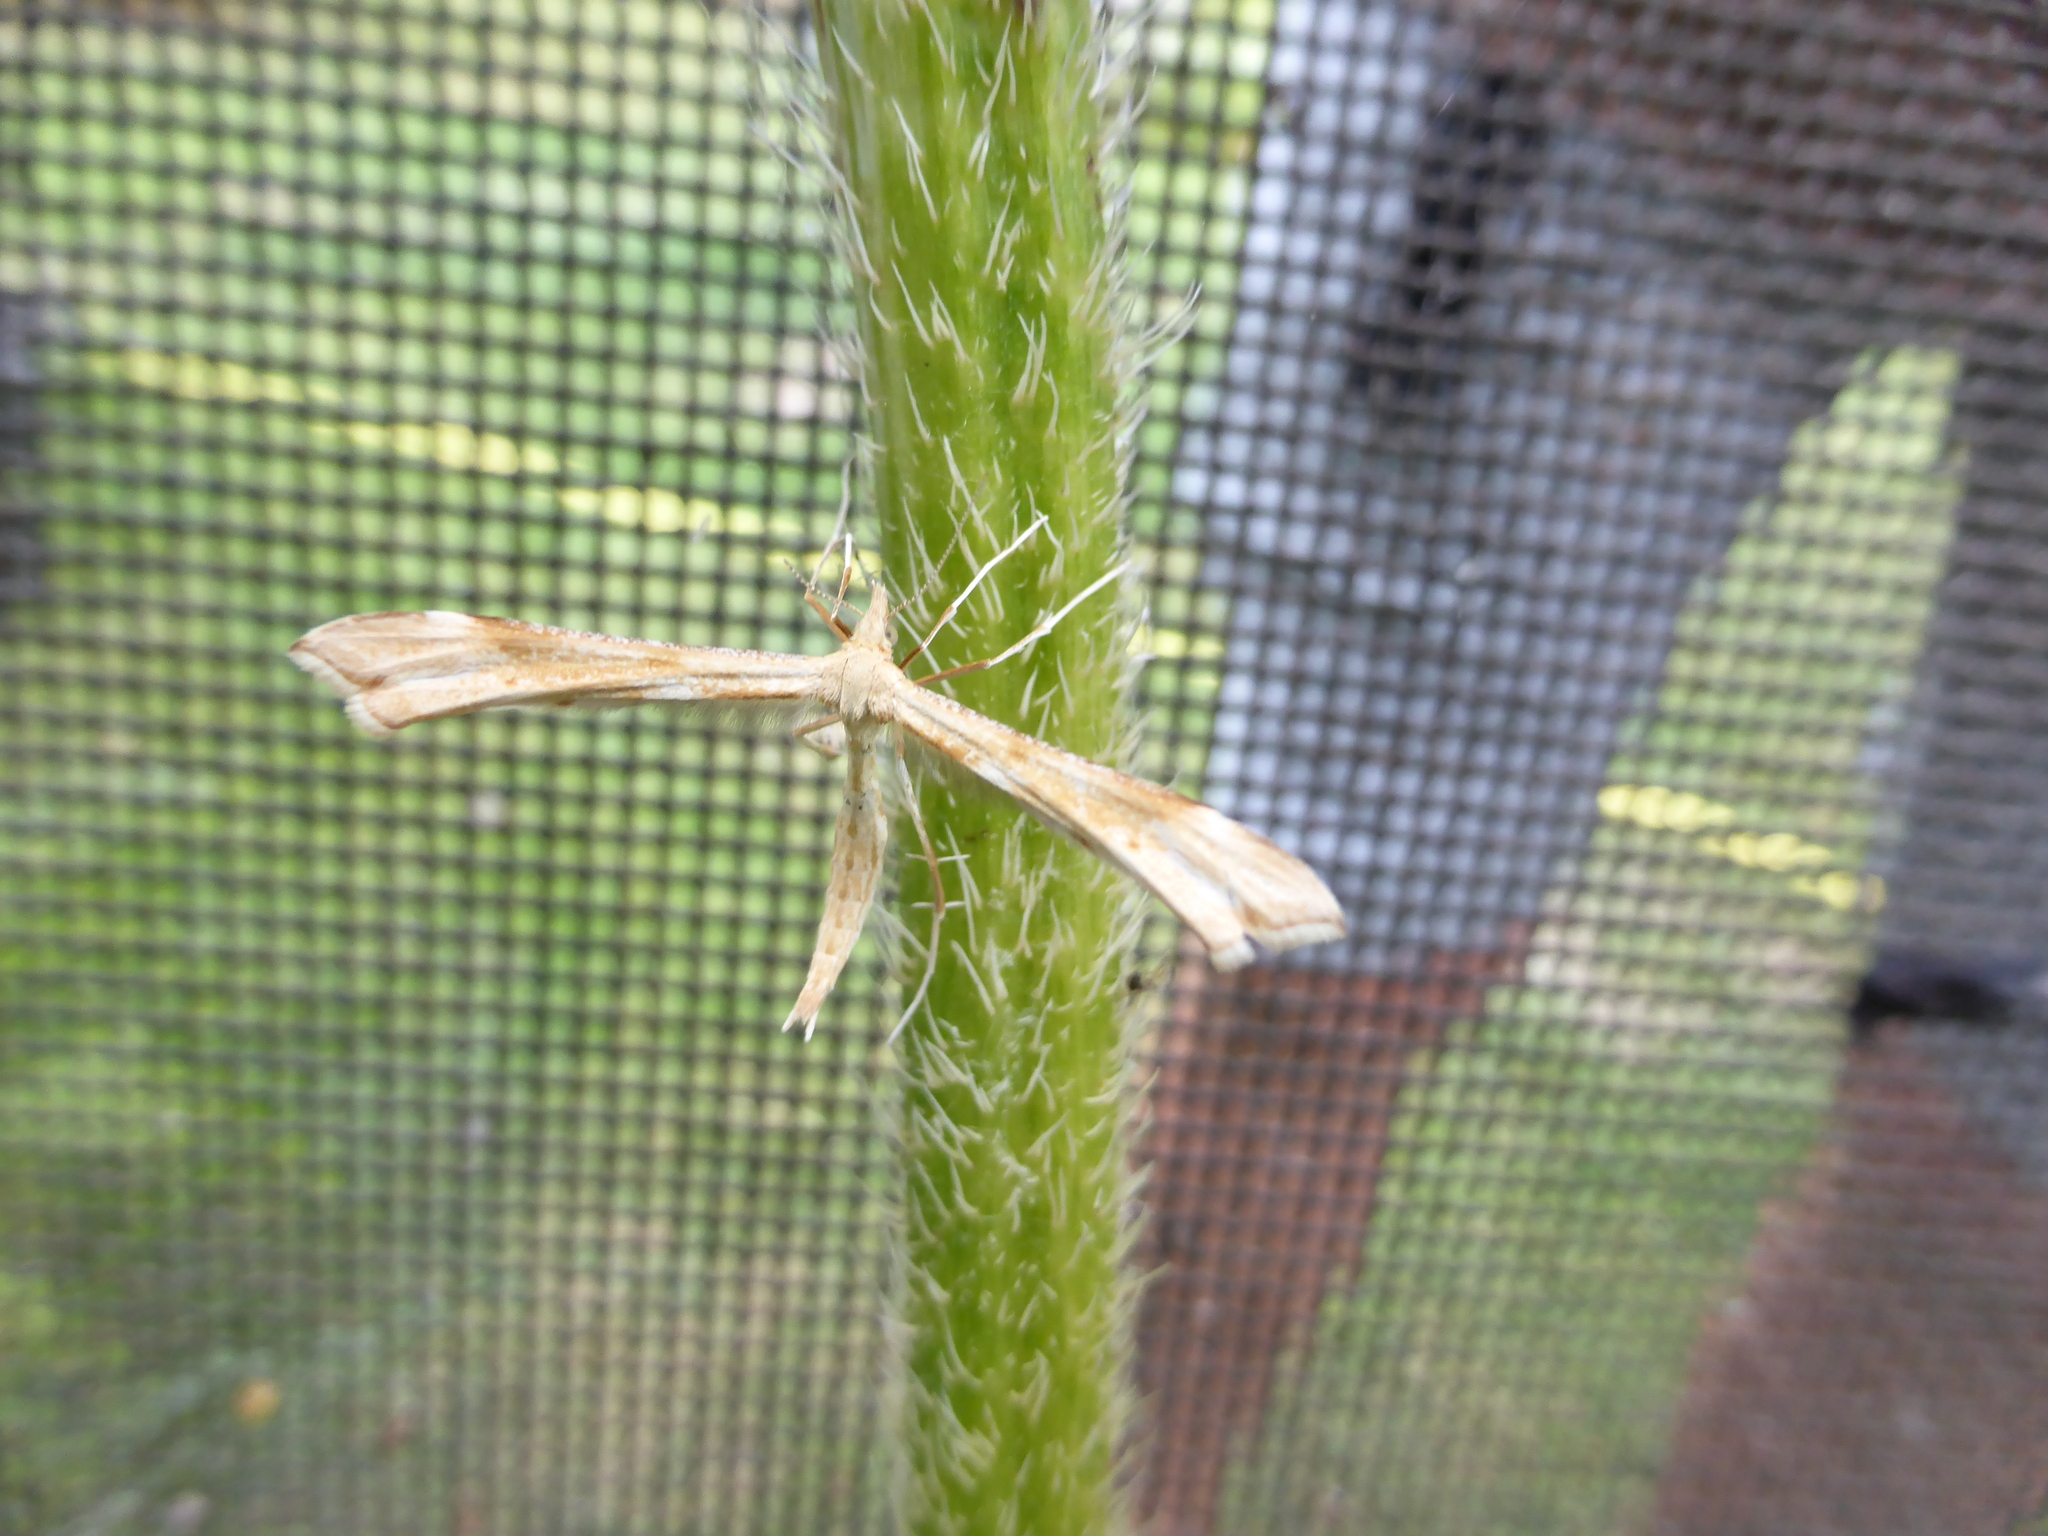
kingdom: Animalia
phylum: Arthropoda
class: Insecta
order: Lepidoptera
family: Pterophoridae
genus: Gillmeria
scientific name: Gillmeria pallidactyla
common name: Yarrow plume
